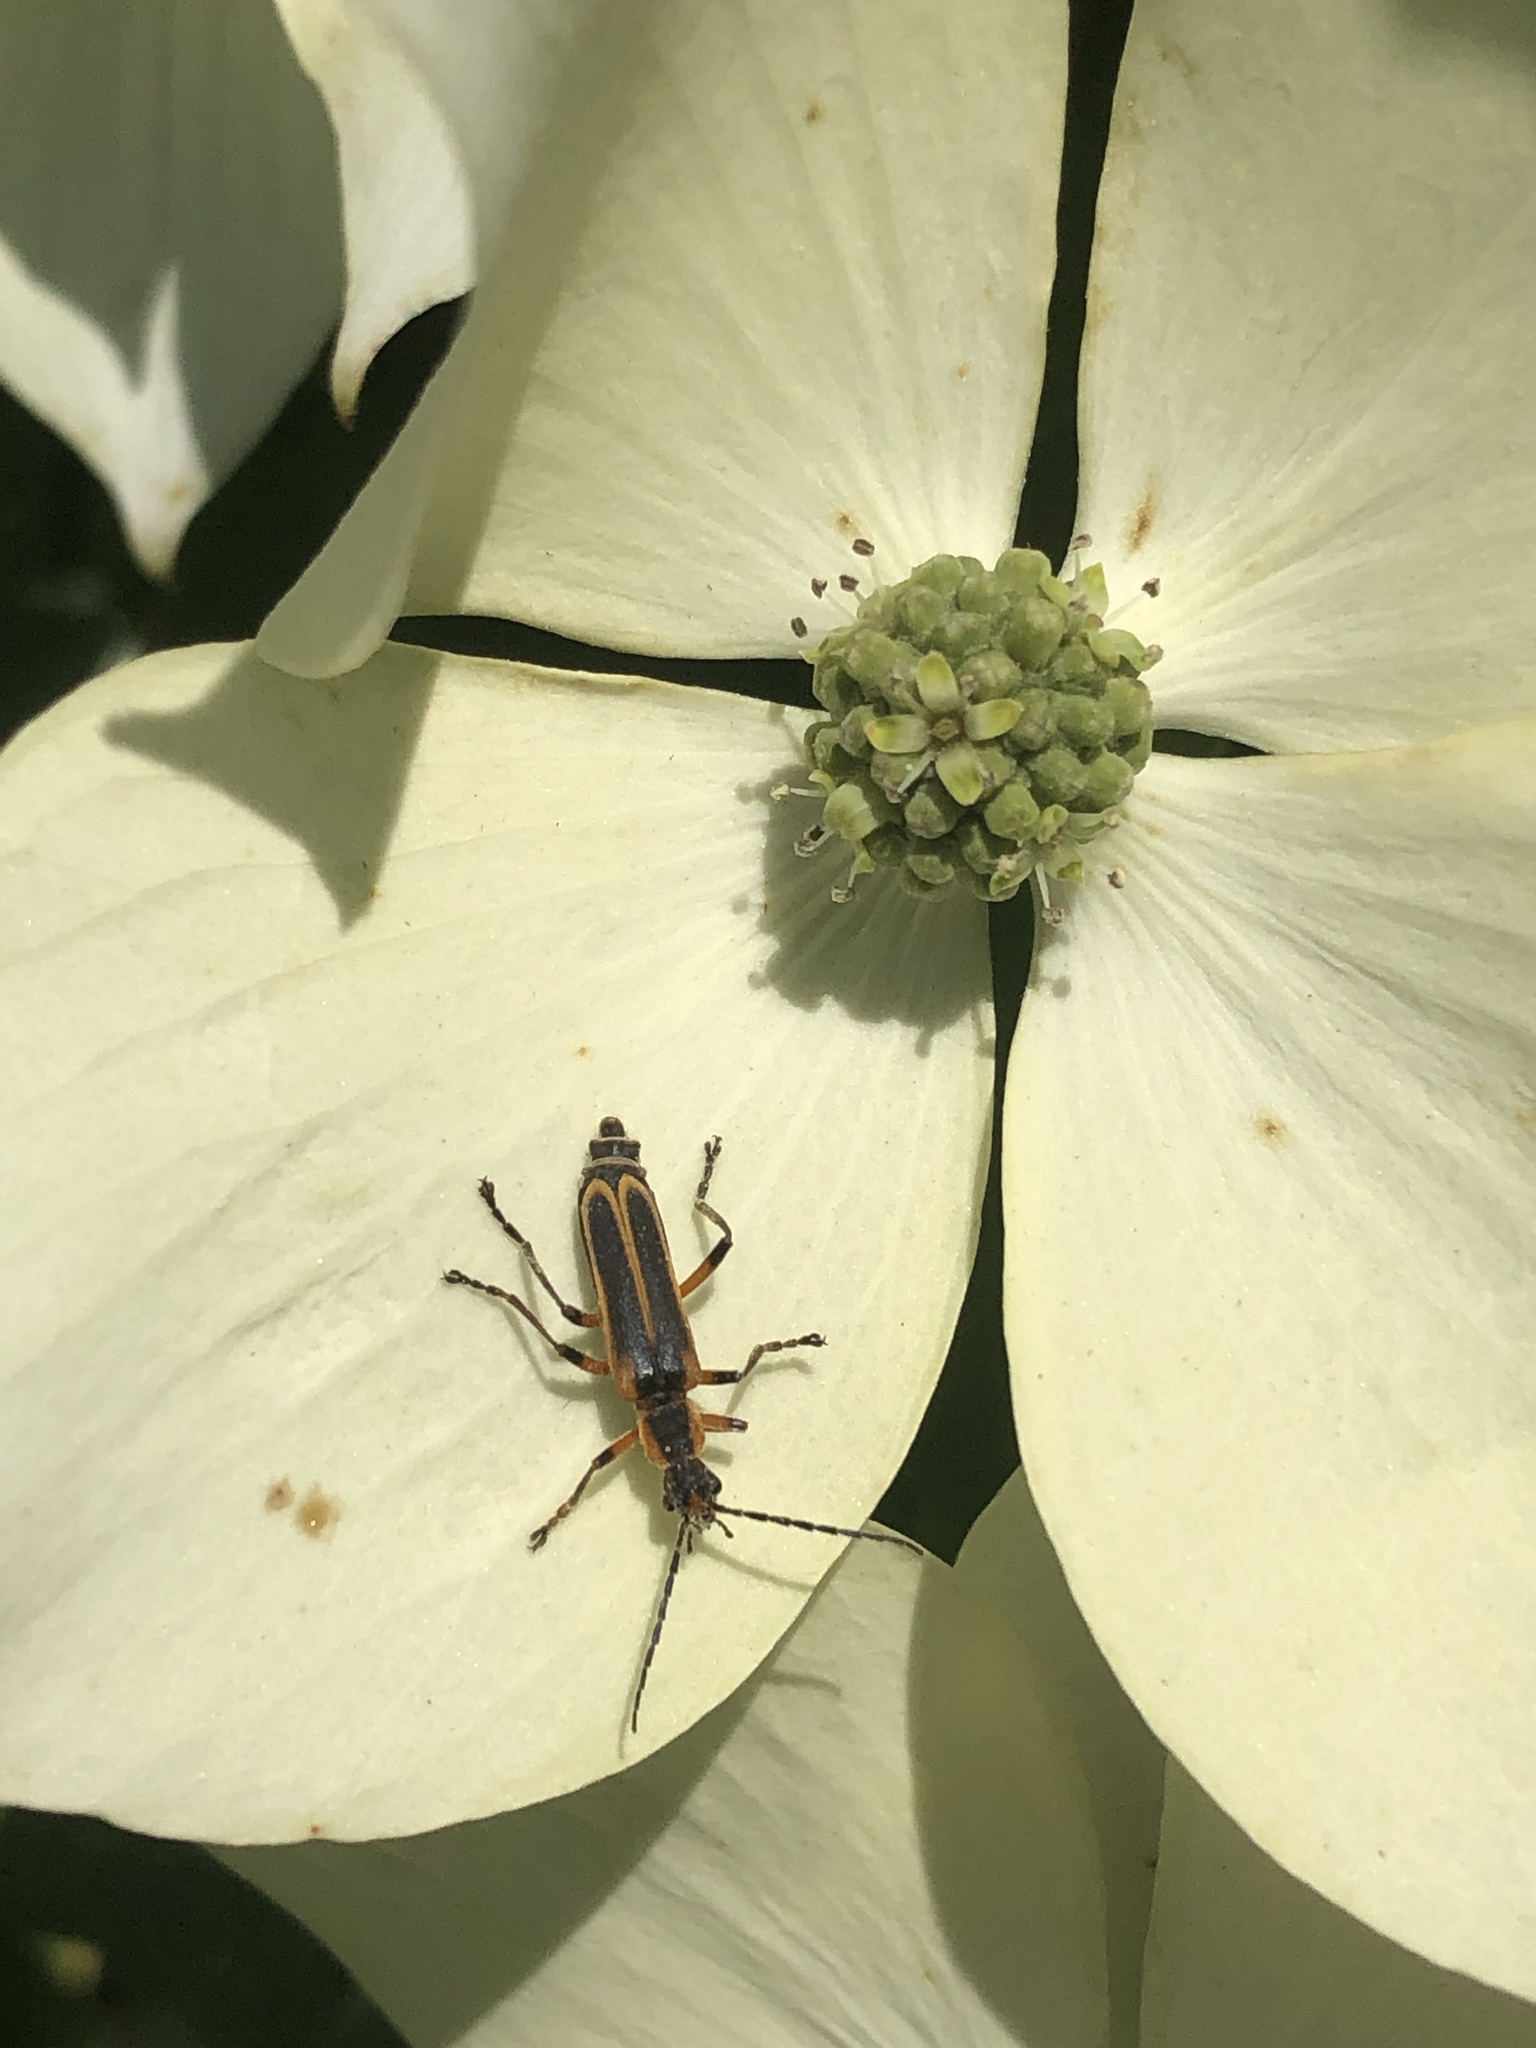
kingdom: Animalia
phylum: Arthropoda
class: Insecta
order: Coleoptera
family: Cantharidae
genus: Chauliognathus
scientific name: Chauliognathus marginatus
